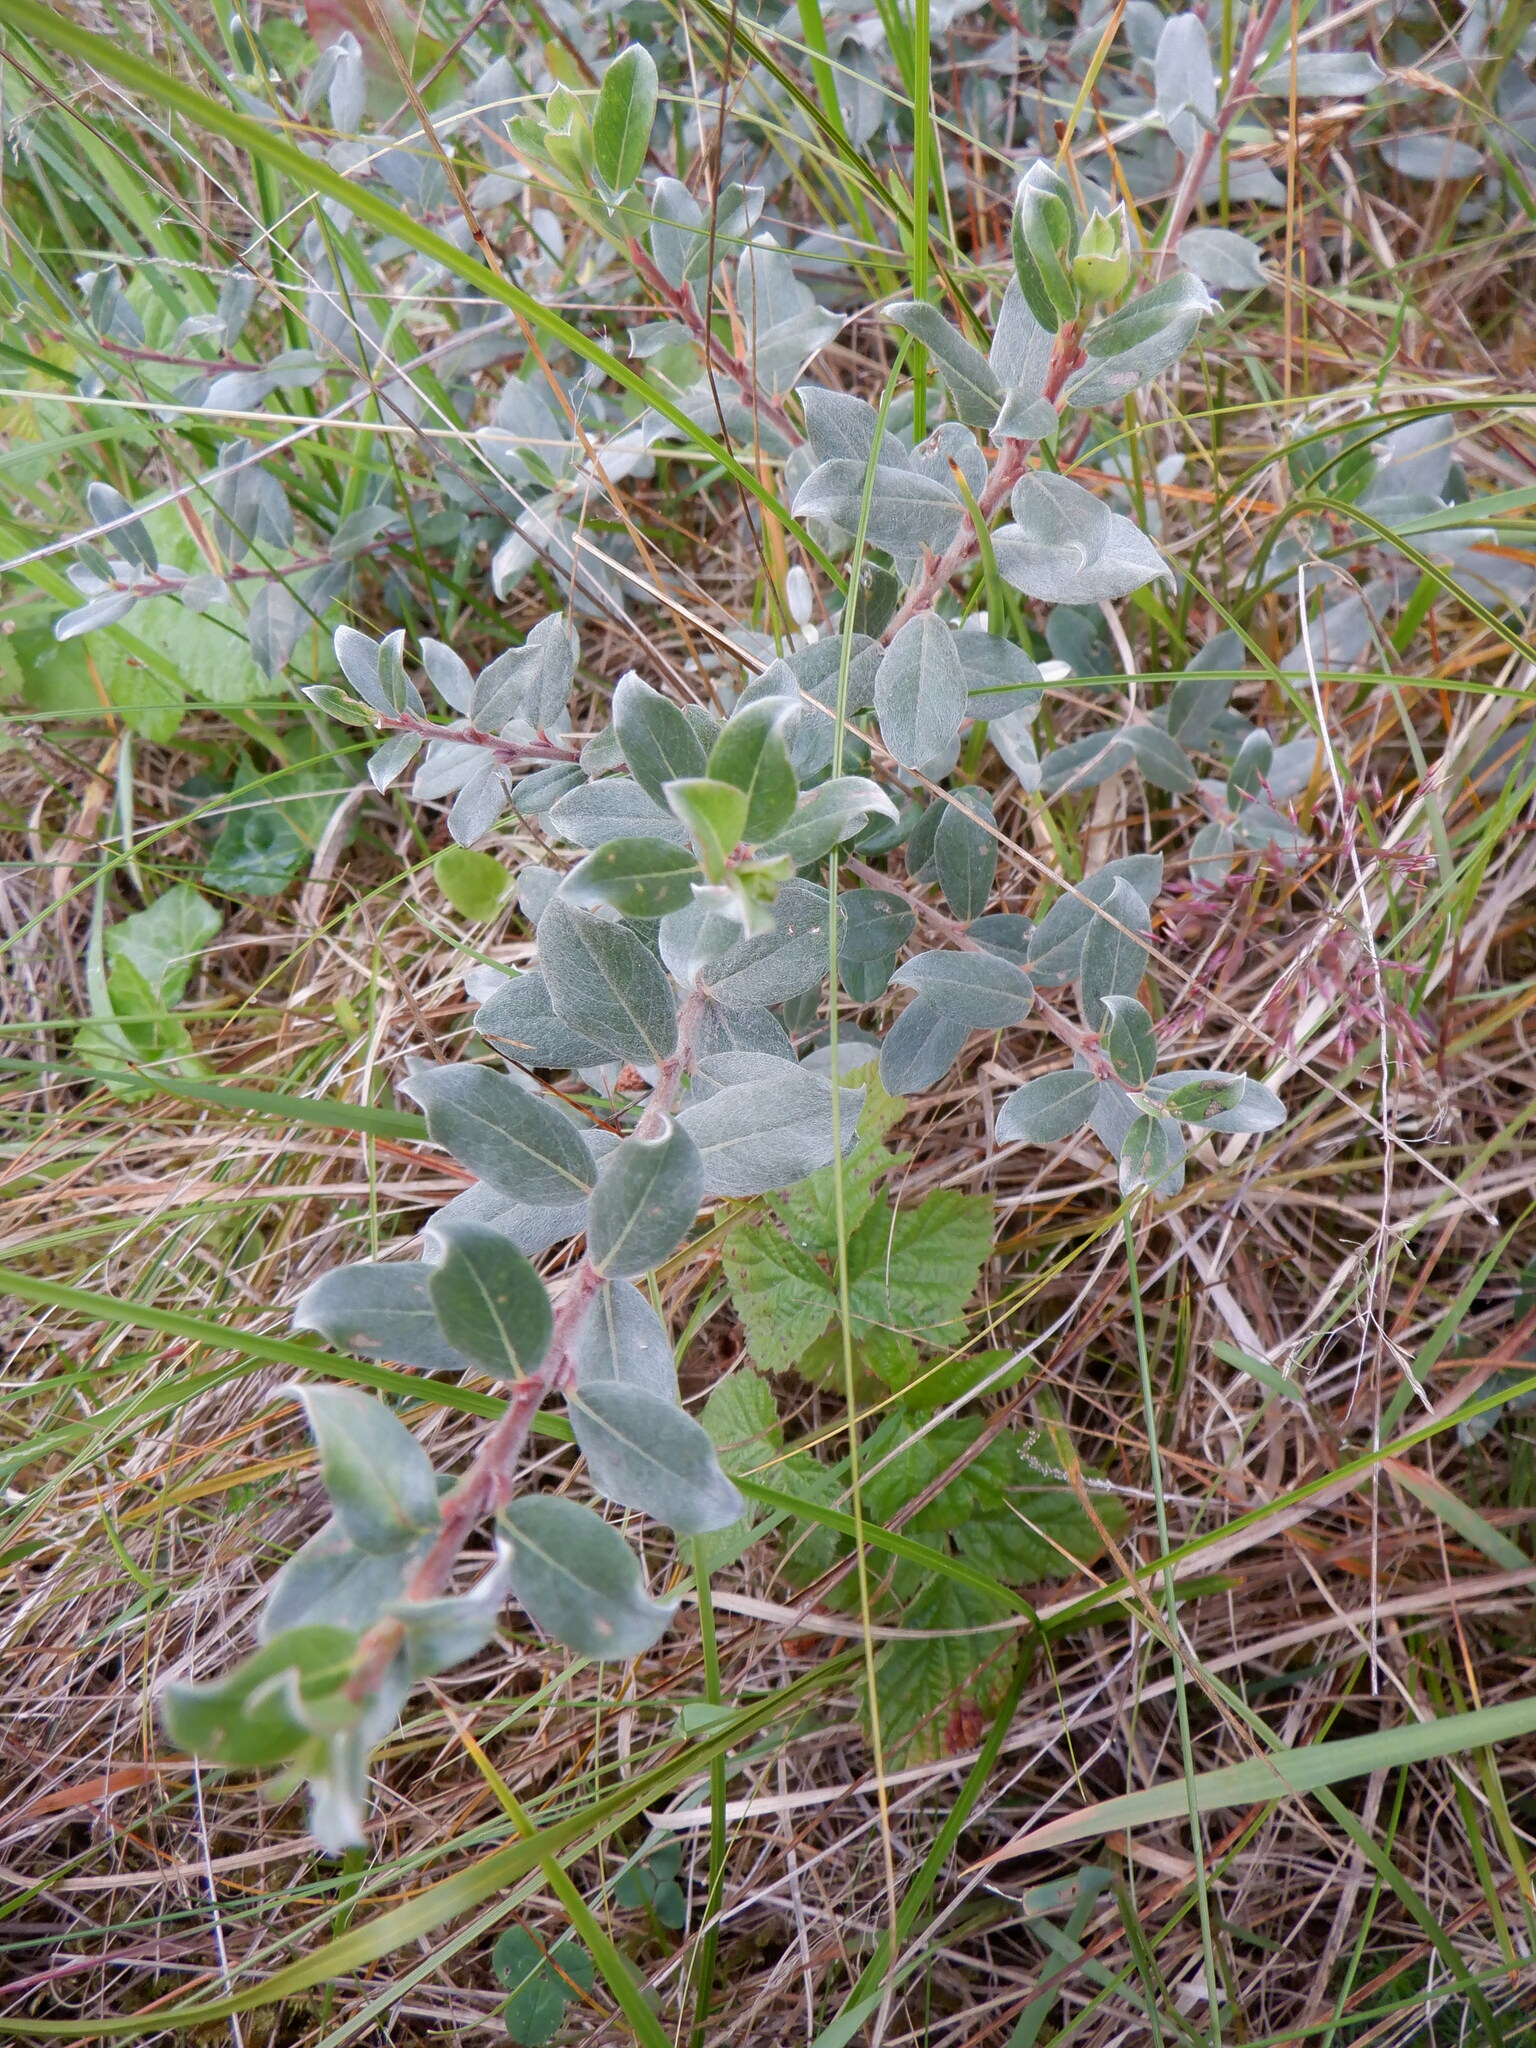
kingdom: Plantae
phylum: Tracheophyta
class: Magnoliopsida
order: Malpighiales
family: Salicaceae
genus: Salix
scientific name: Salix repens
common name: Creeping willow
